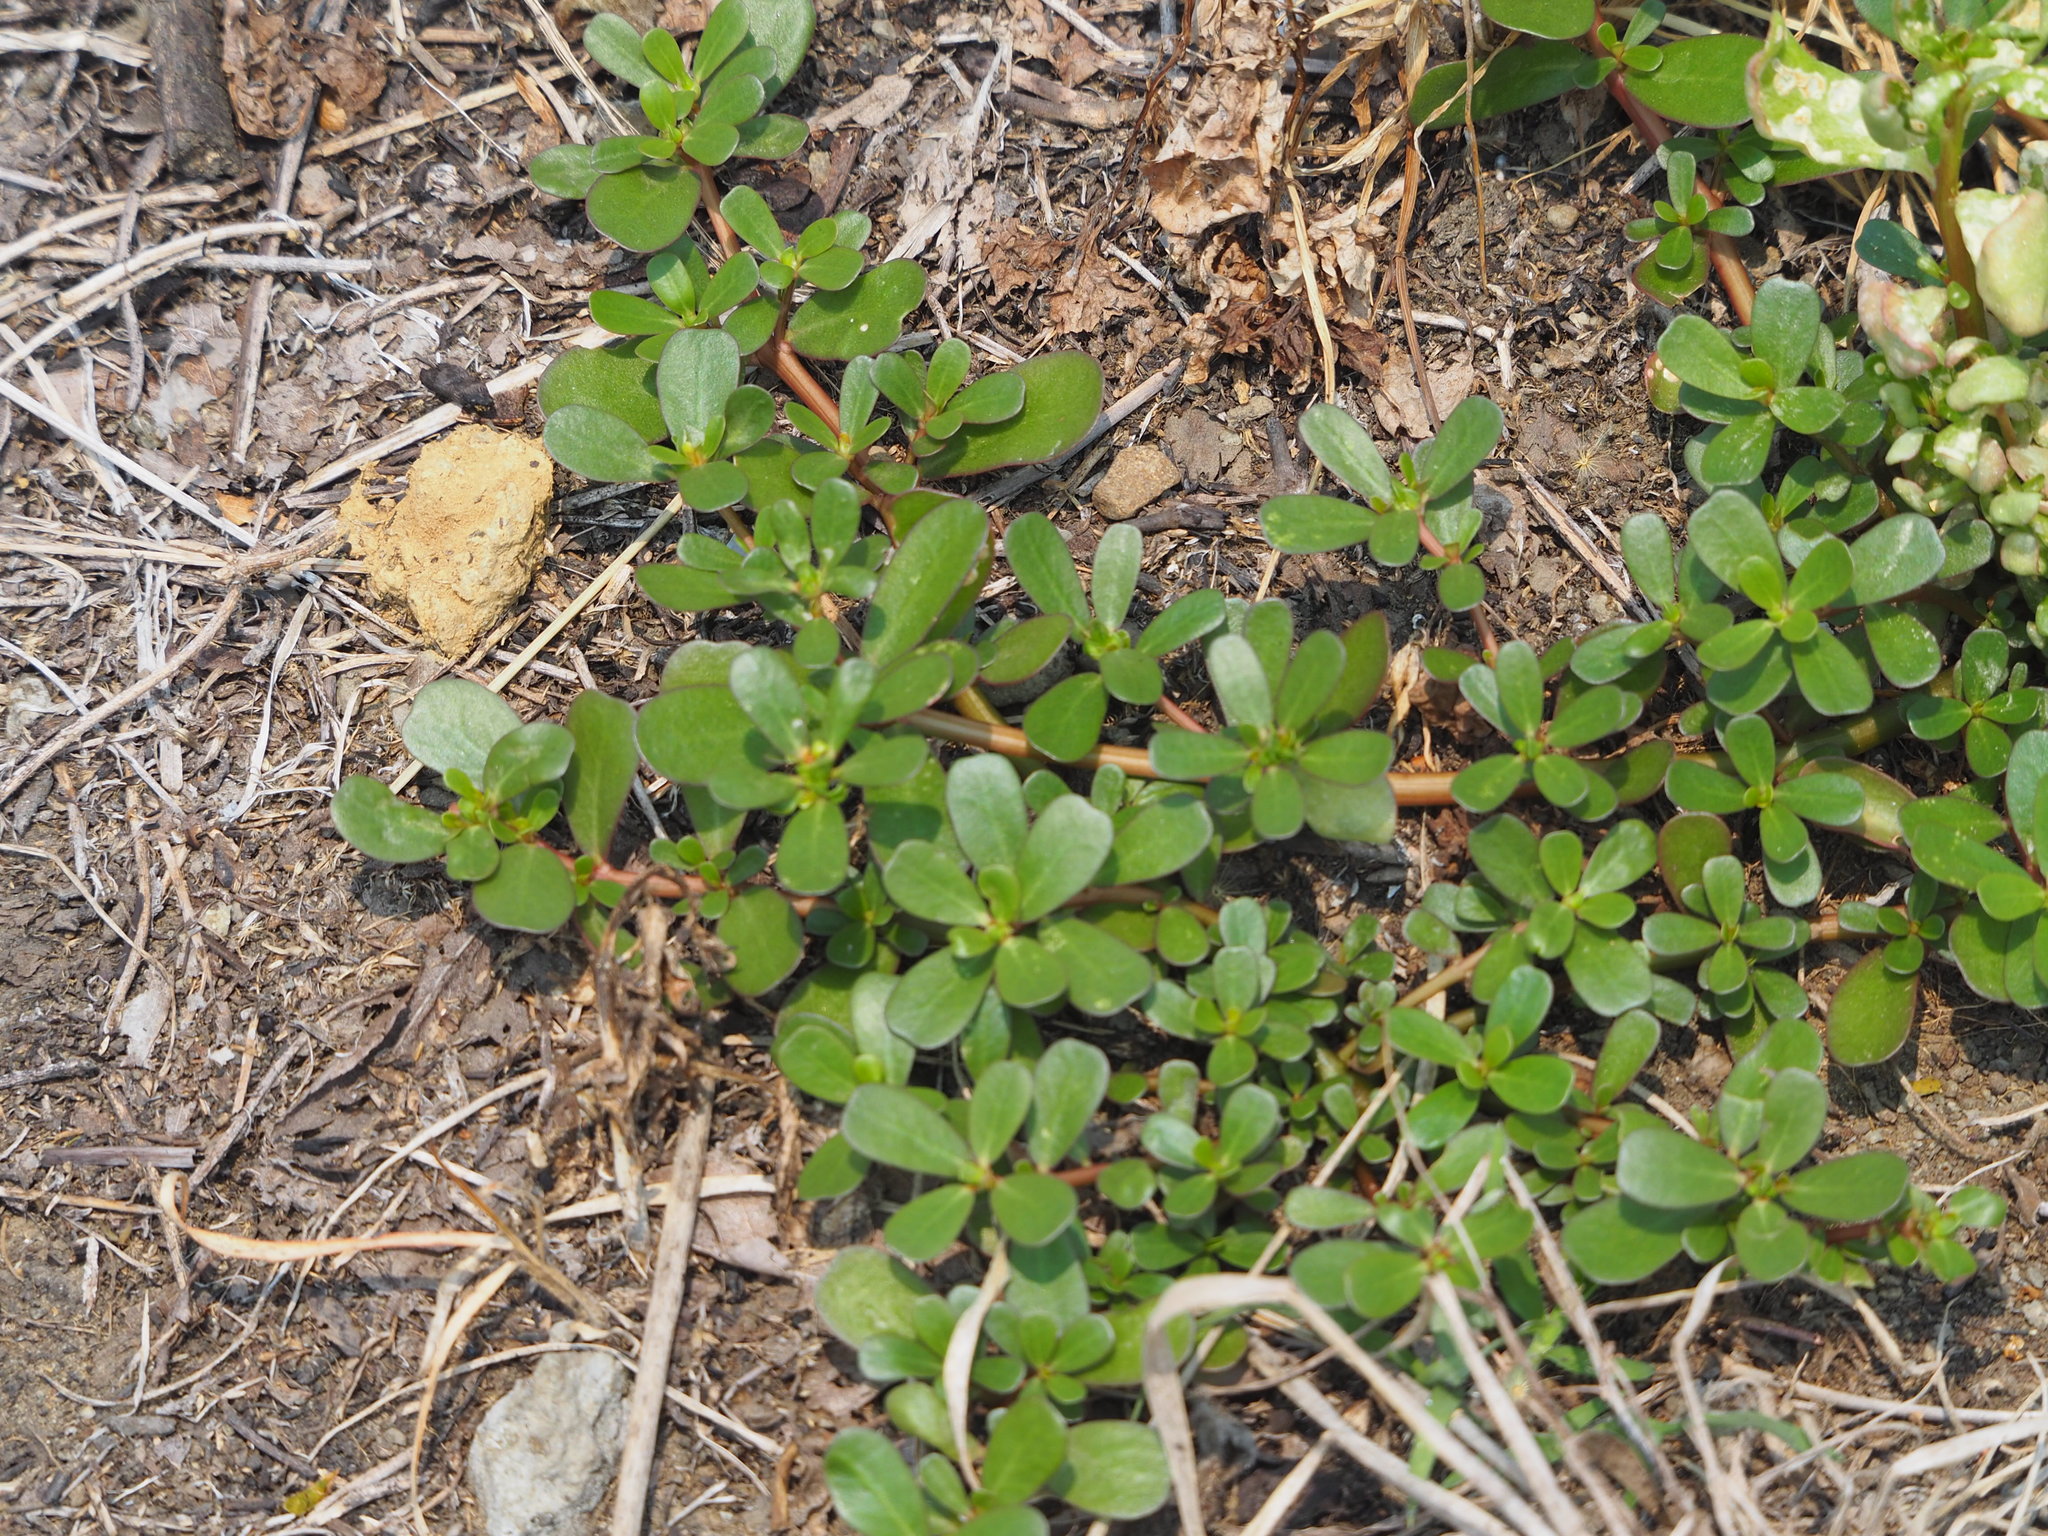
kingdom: Plantae
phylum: Tracheophyta
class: Magnoliopsida
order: Caryophyllales
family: Portulacaceae
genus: Portulaca
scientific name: Portulaca oleracea
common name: Common purslane
